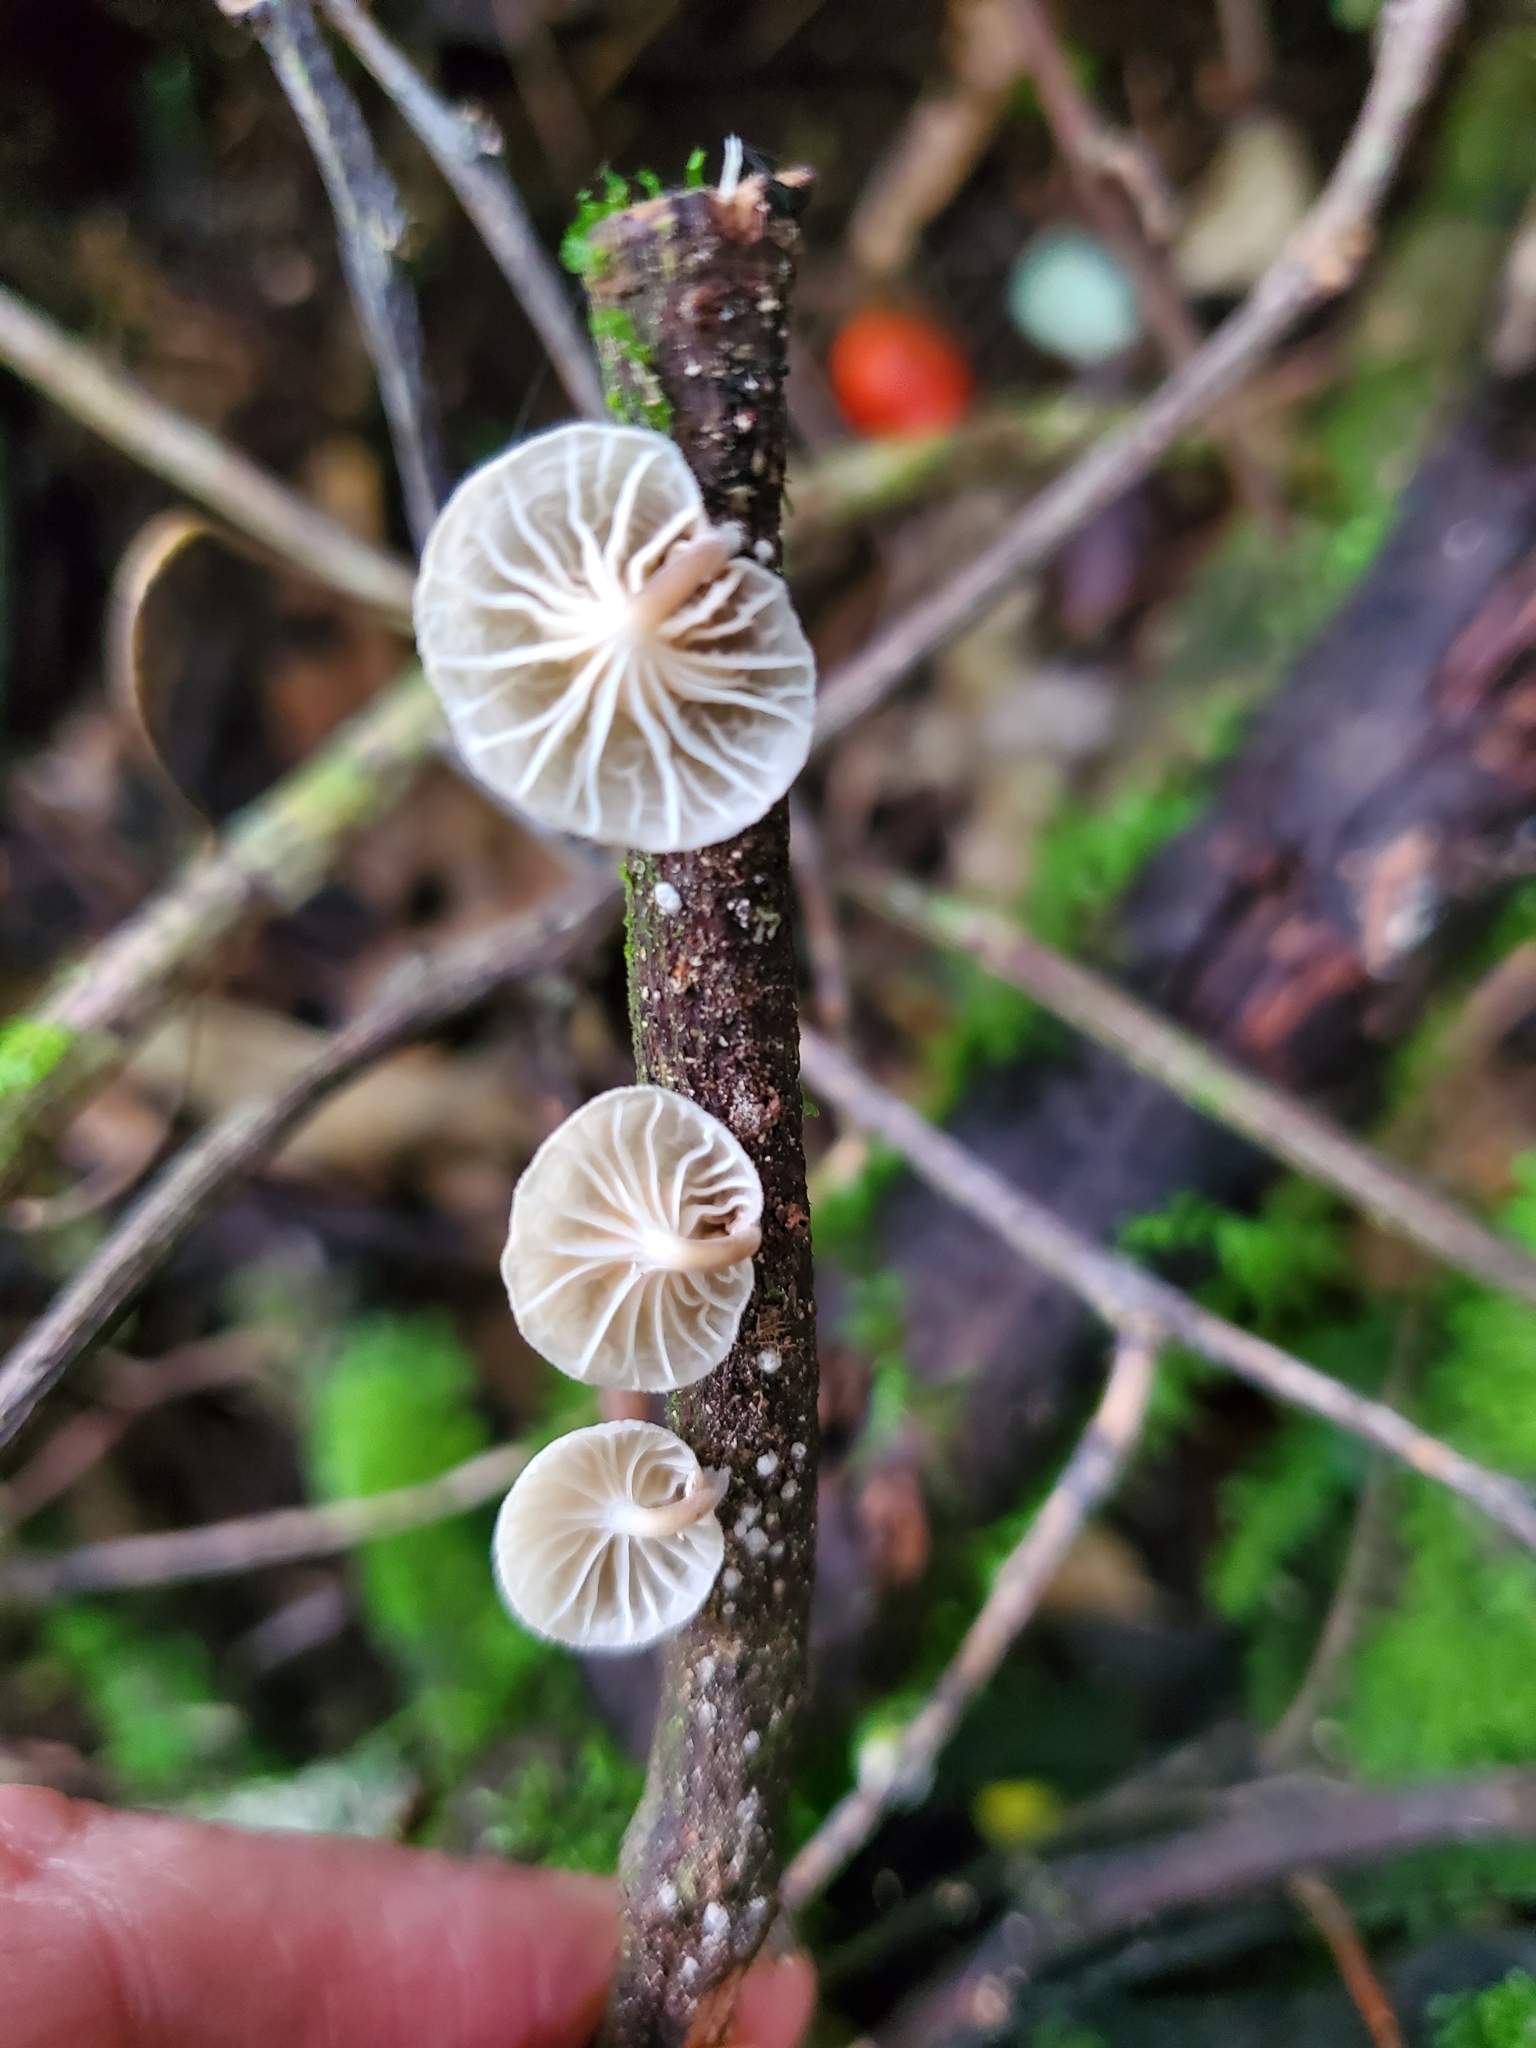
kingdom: Fungi
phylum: Basidiomycota
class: Agaricomycetes
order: Agaricales
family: Omphalotaceae
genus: Marasmiellus
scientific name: Marasmiellus candidus
